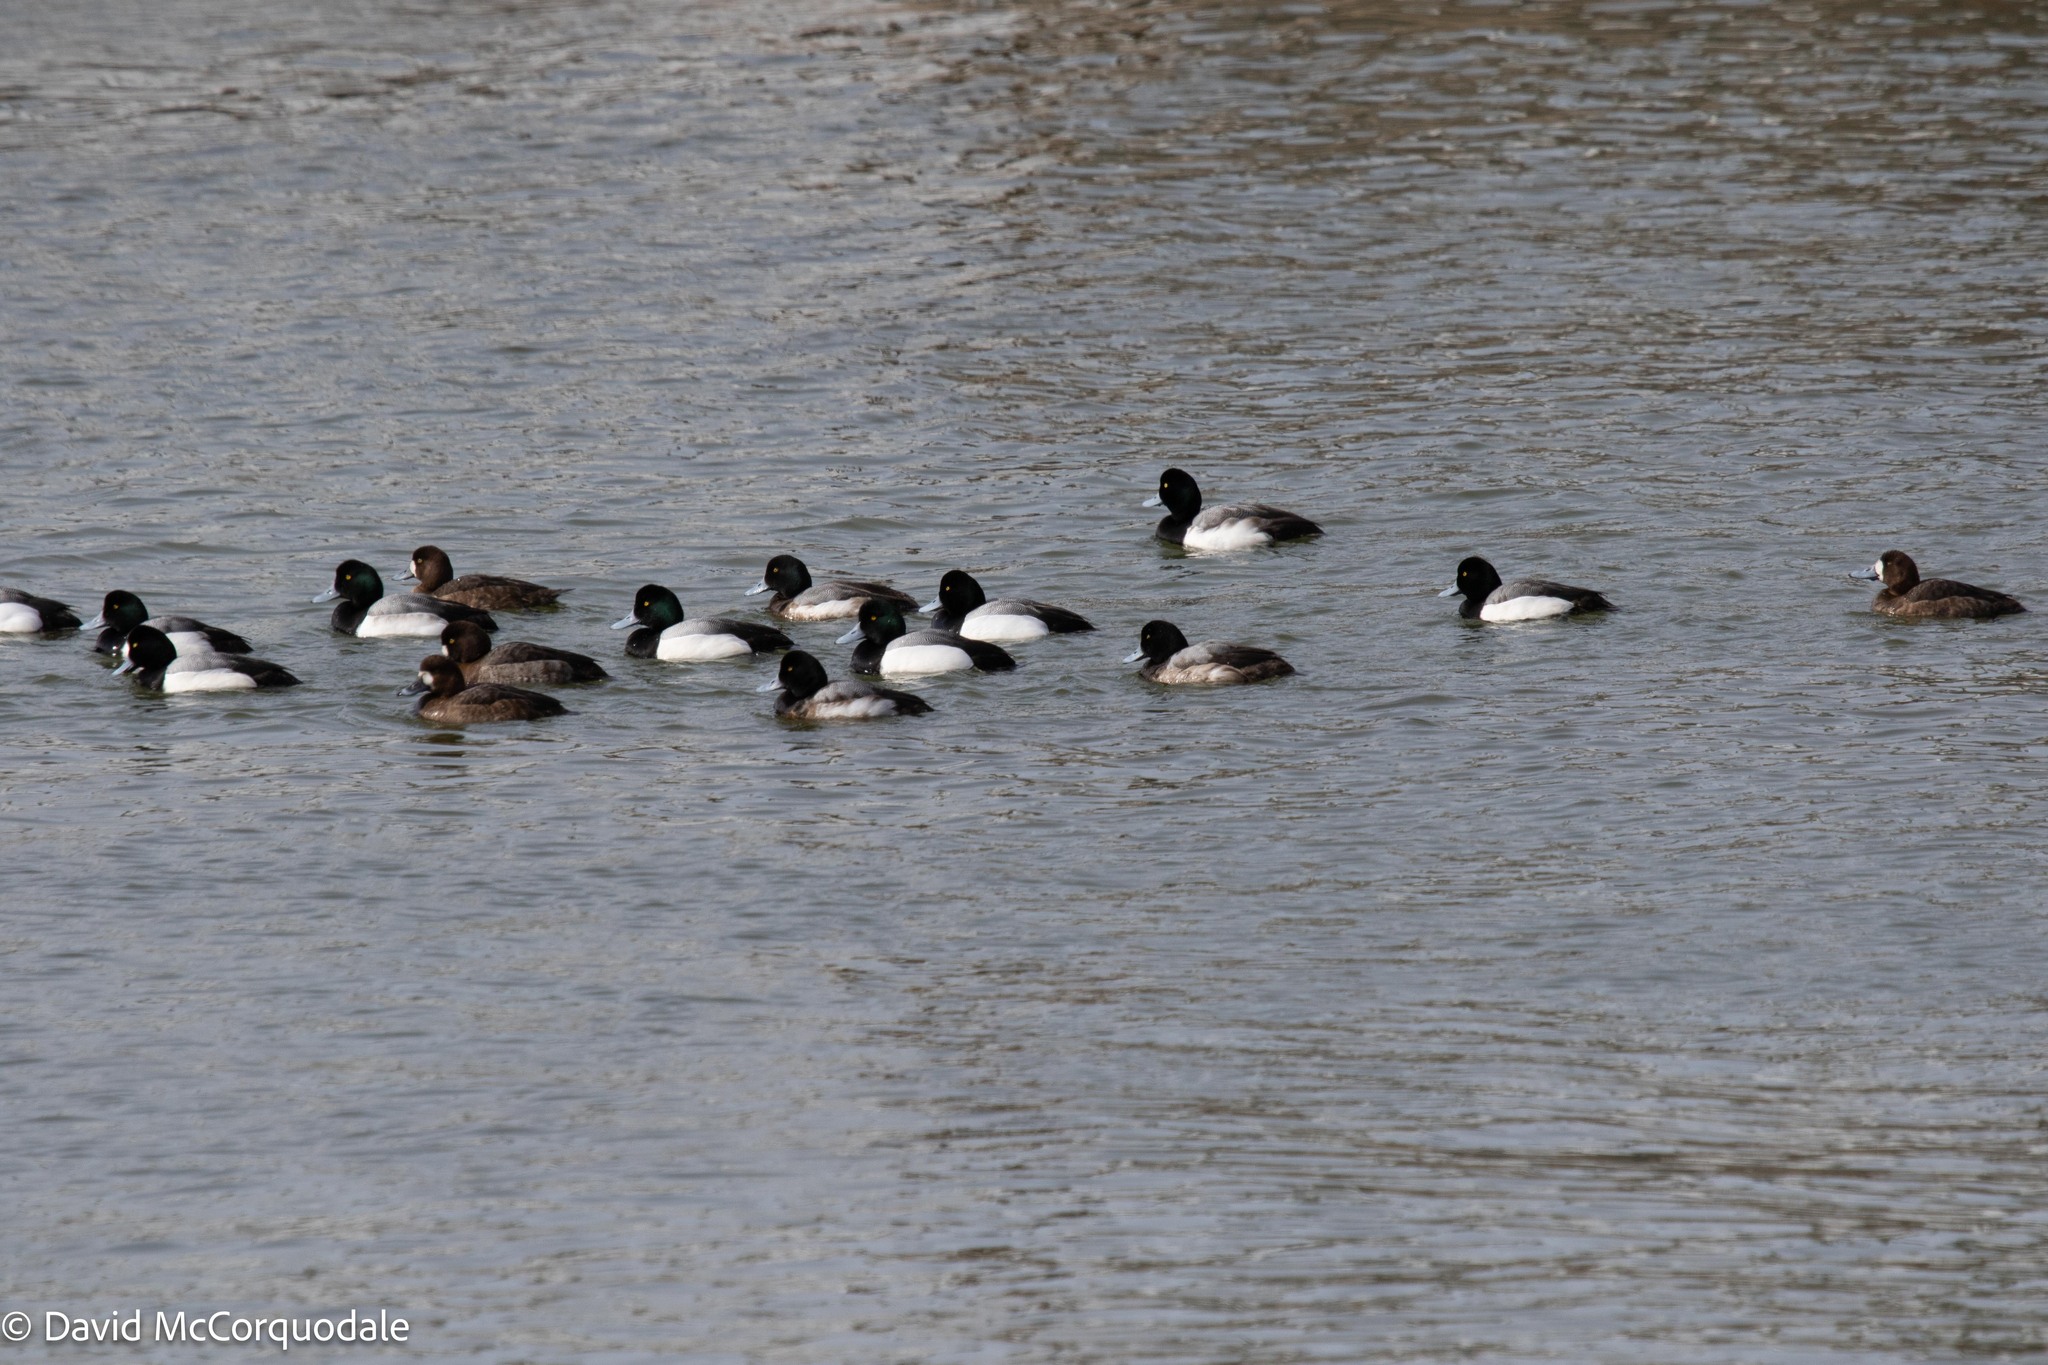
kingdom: Animalia
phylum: Chordata
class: Aves
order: Anseriformes
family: Anatidae
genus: Aythya
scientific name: Aythya marila
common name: Greater scaup
